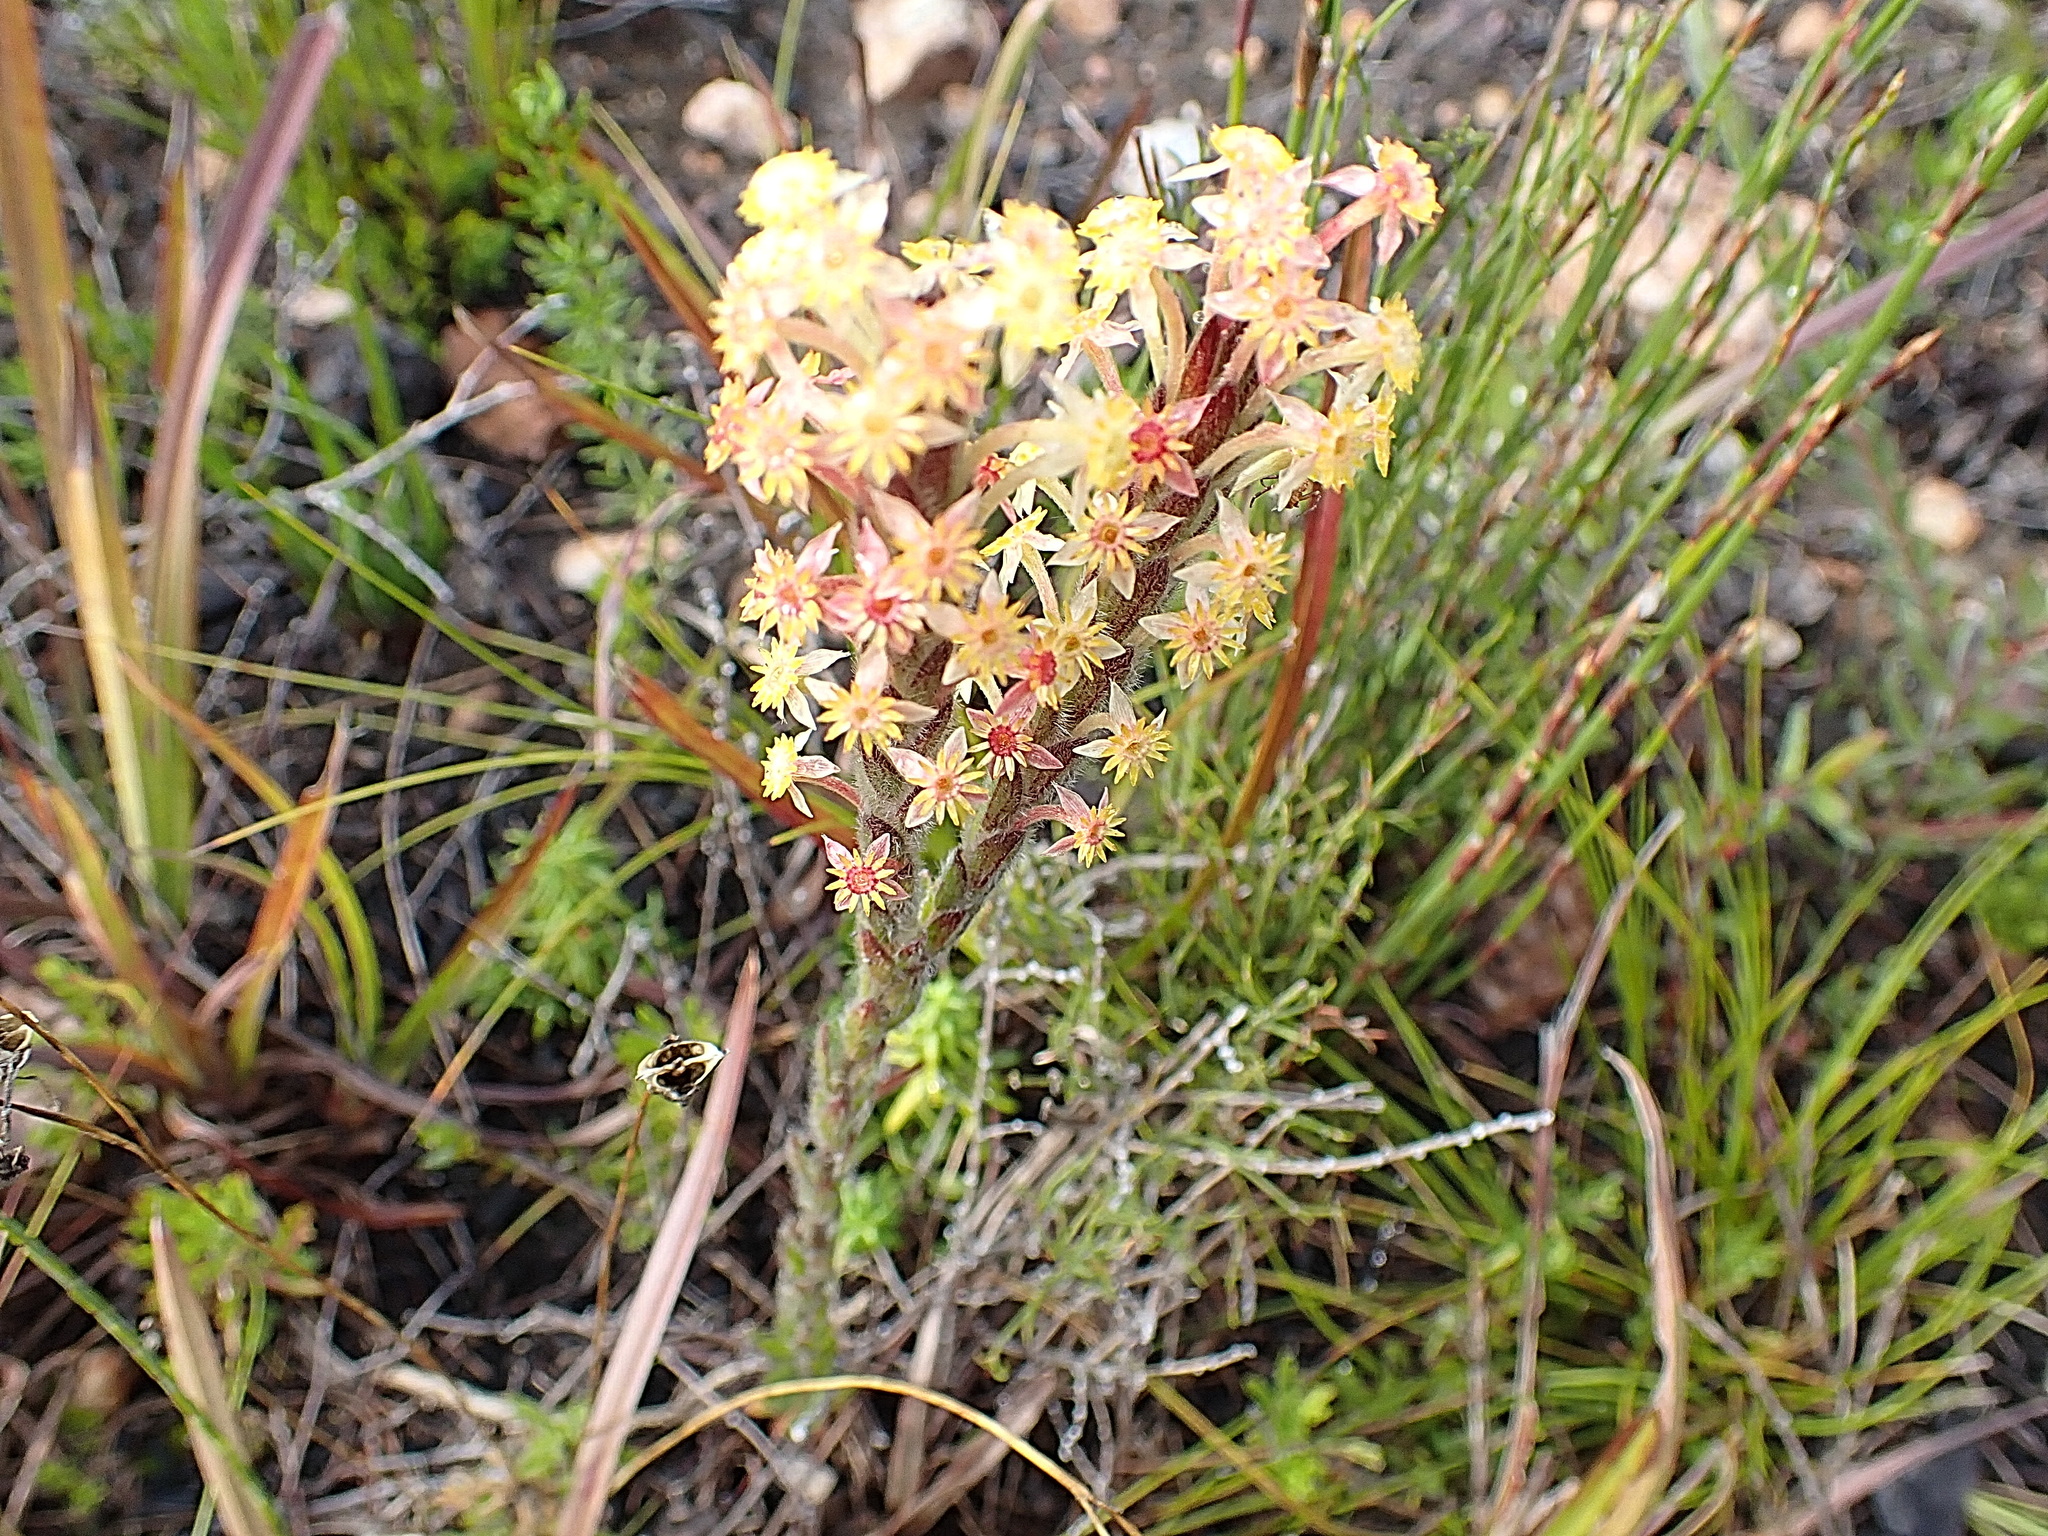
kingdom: Plantae
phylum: Tracheophyta
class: Magnoliopsida
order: Malvales
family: Thymelaeaceae
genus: Struthiola
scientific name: Struthiola tomentosa
